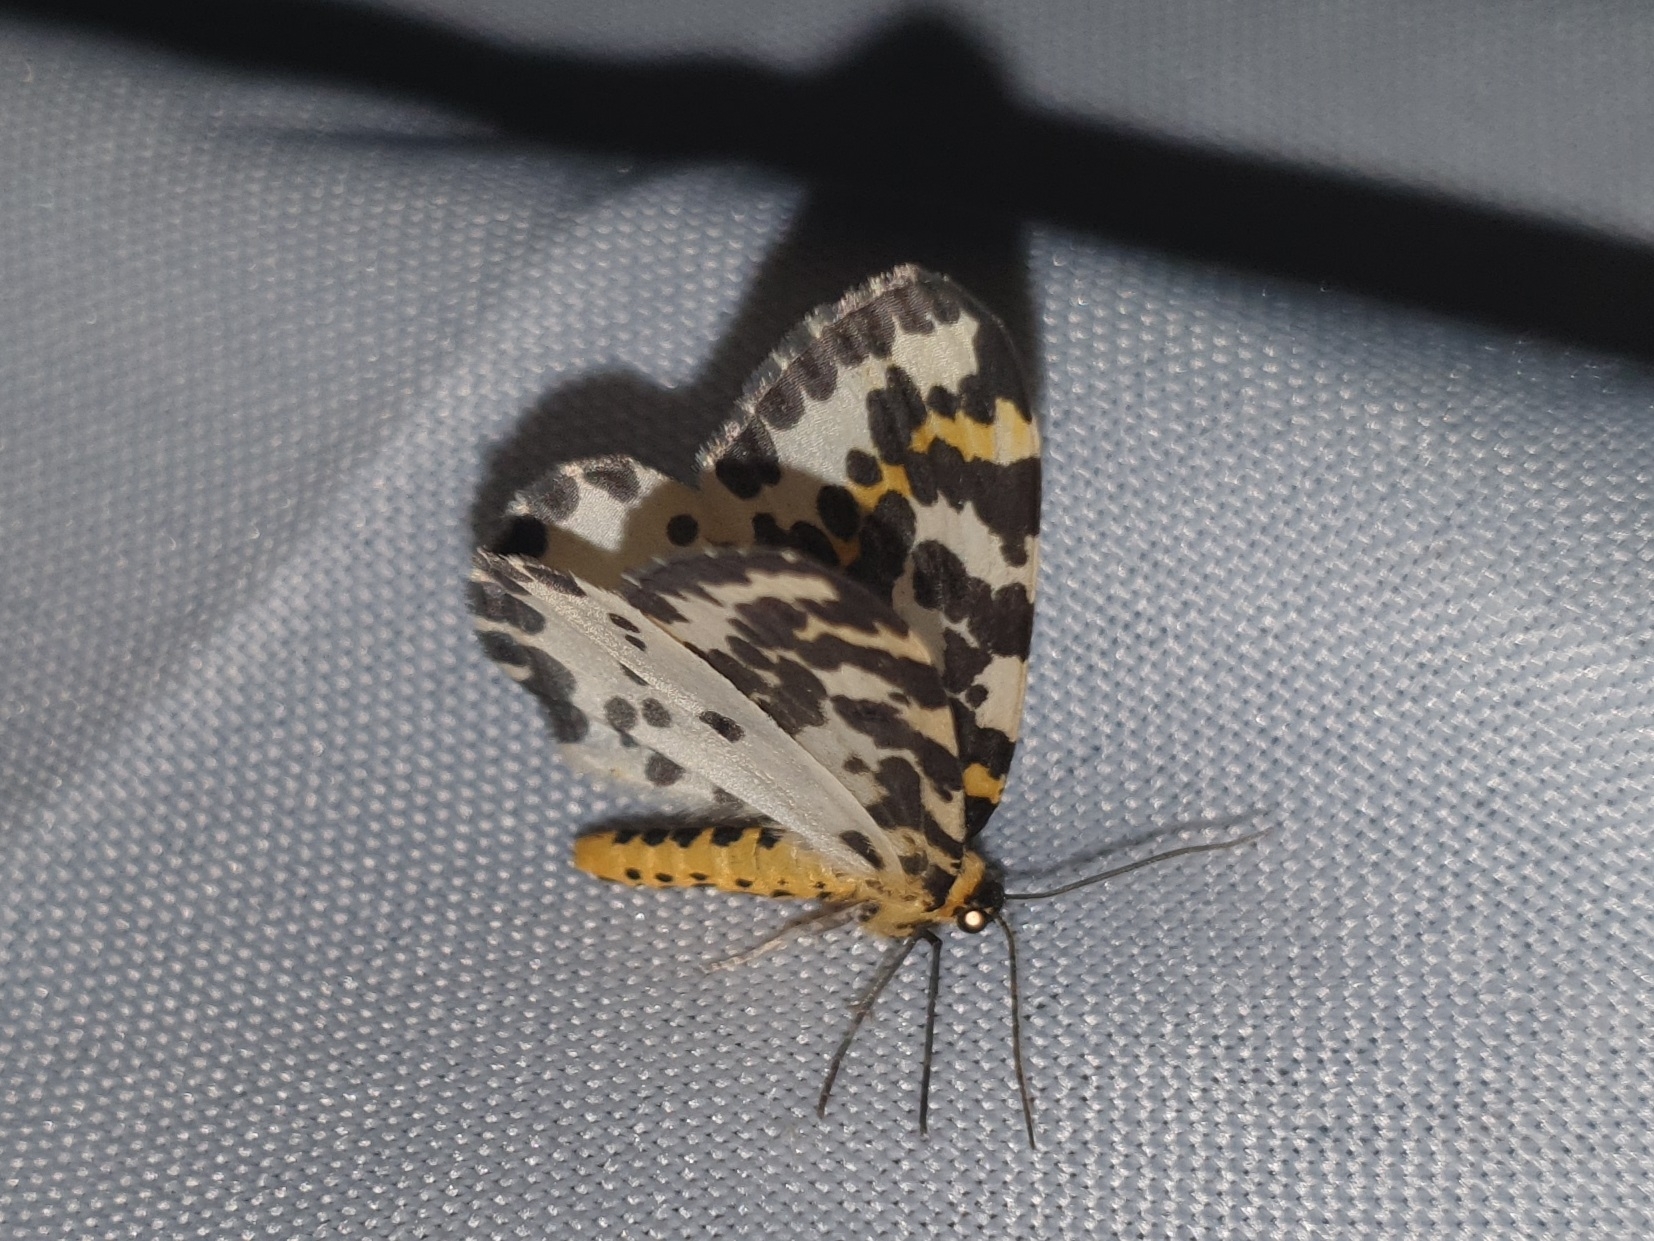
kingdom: Animalia
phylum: Arthropoda
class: Insecta
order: Lepidoptera
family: Geometridae
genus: Abraxas
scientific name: Abraxas grossulariata
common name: Magpie
